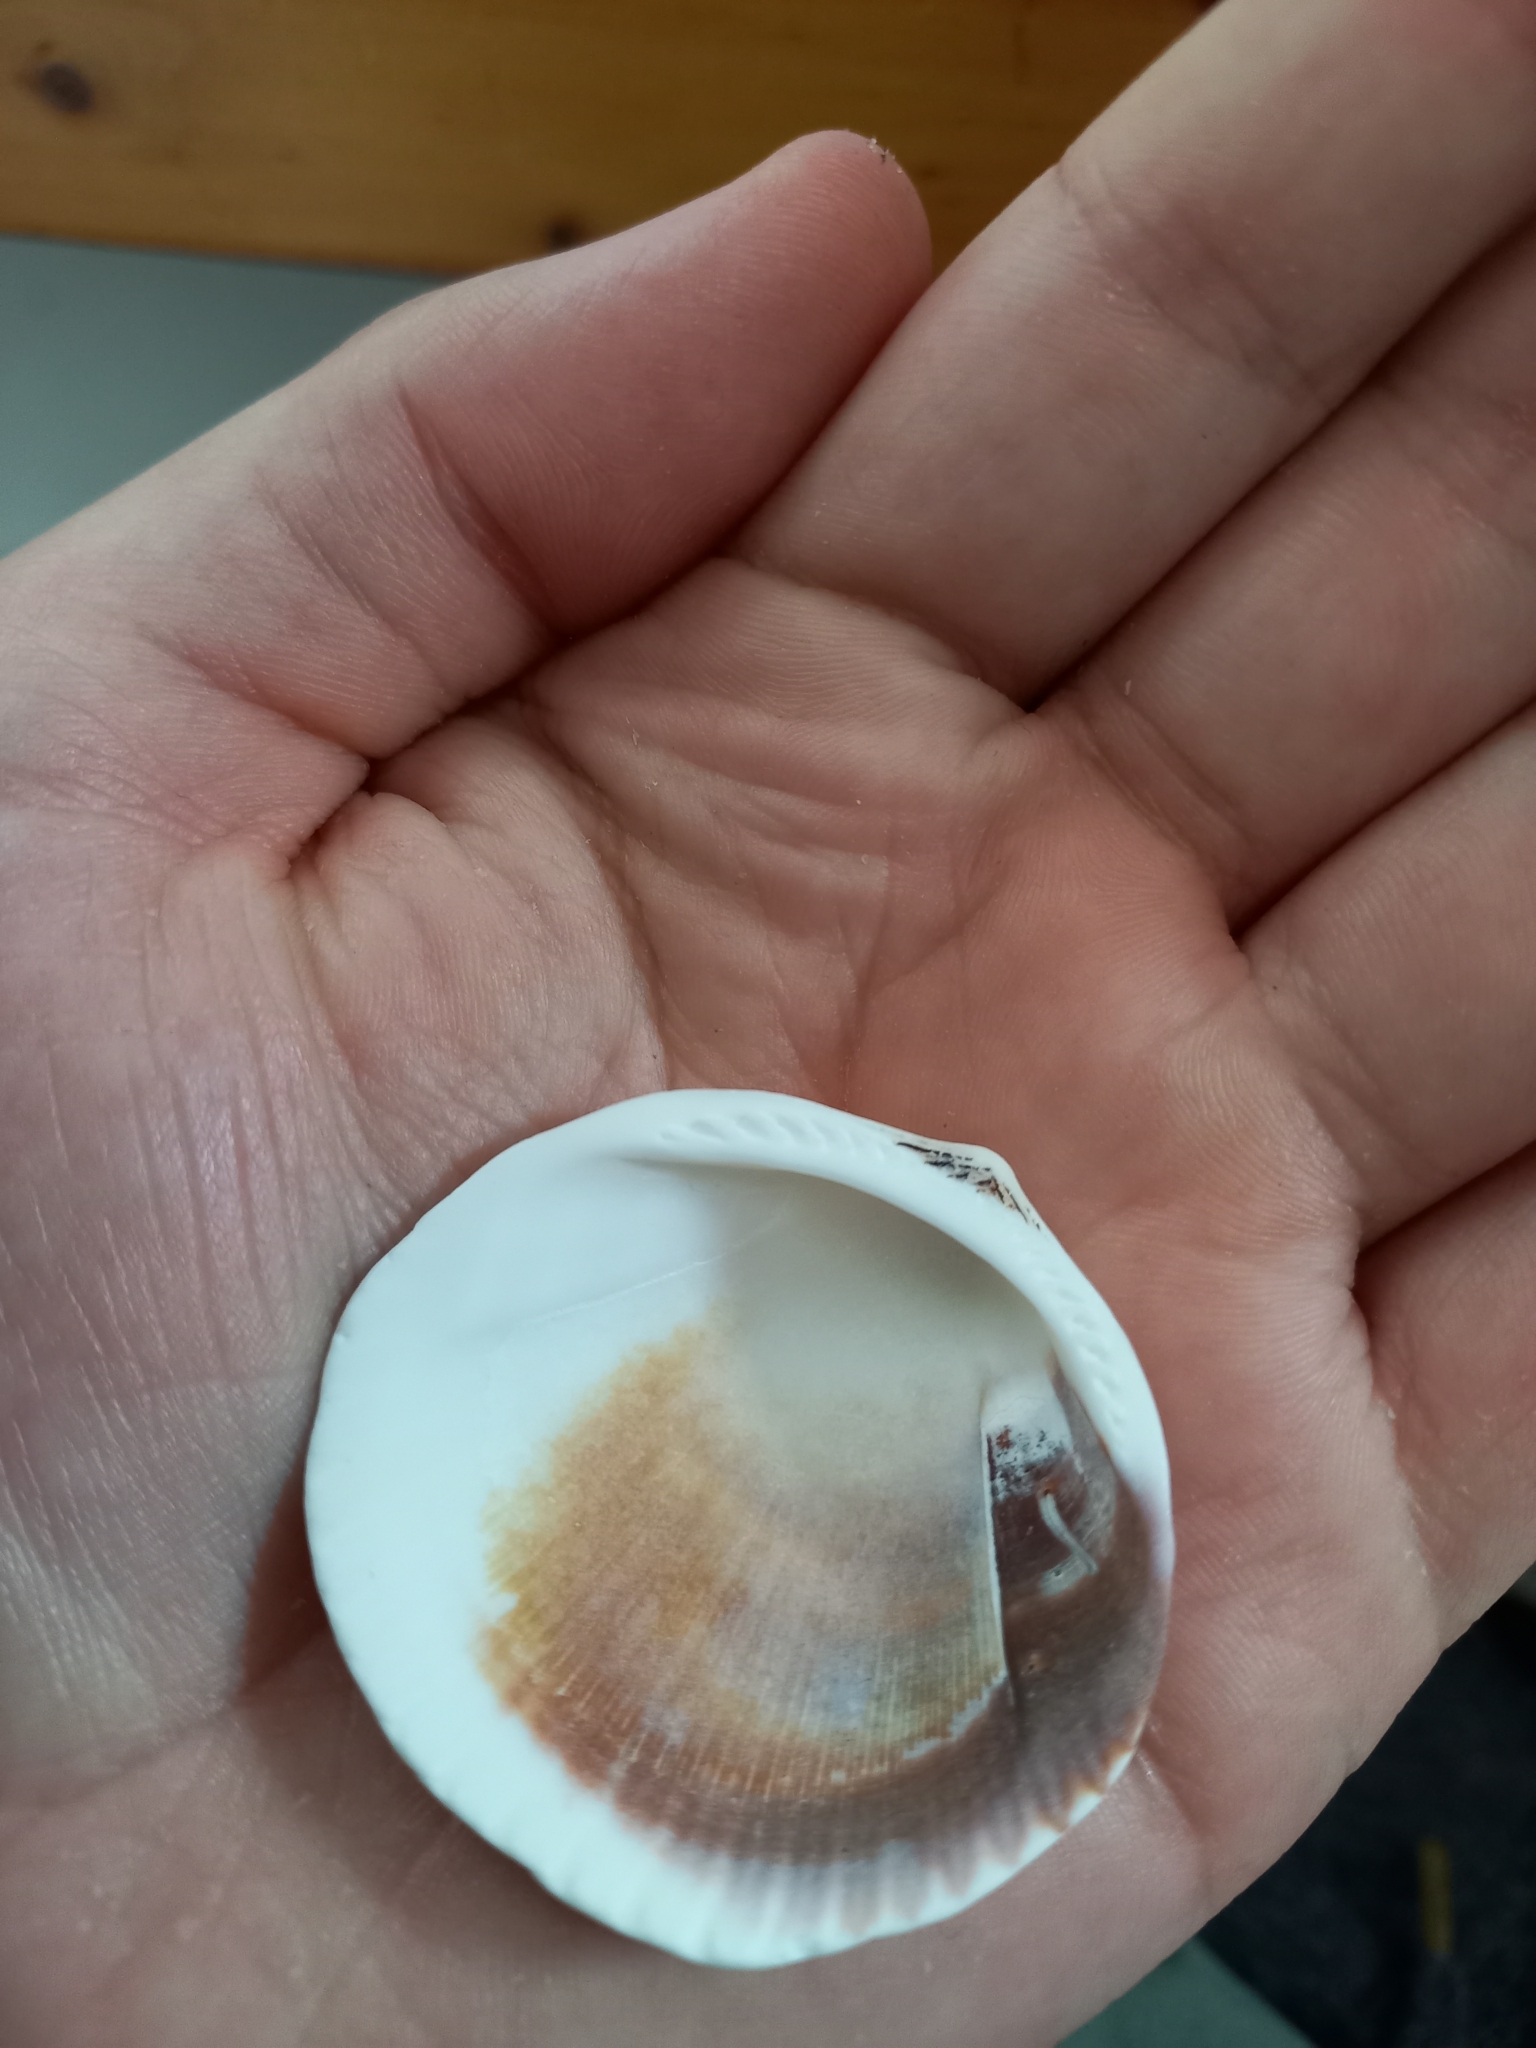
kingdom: Animalia
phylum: Mollusca
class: Bivalvia
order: Arcida
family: Glycymerididae
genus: Tucetona
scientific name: Tucetona laticostata
